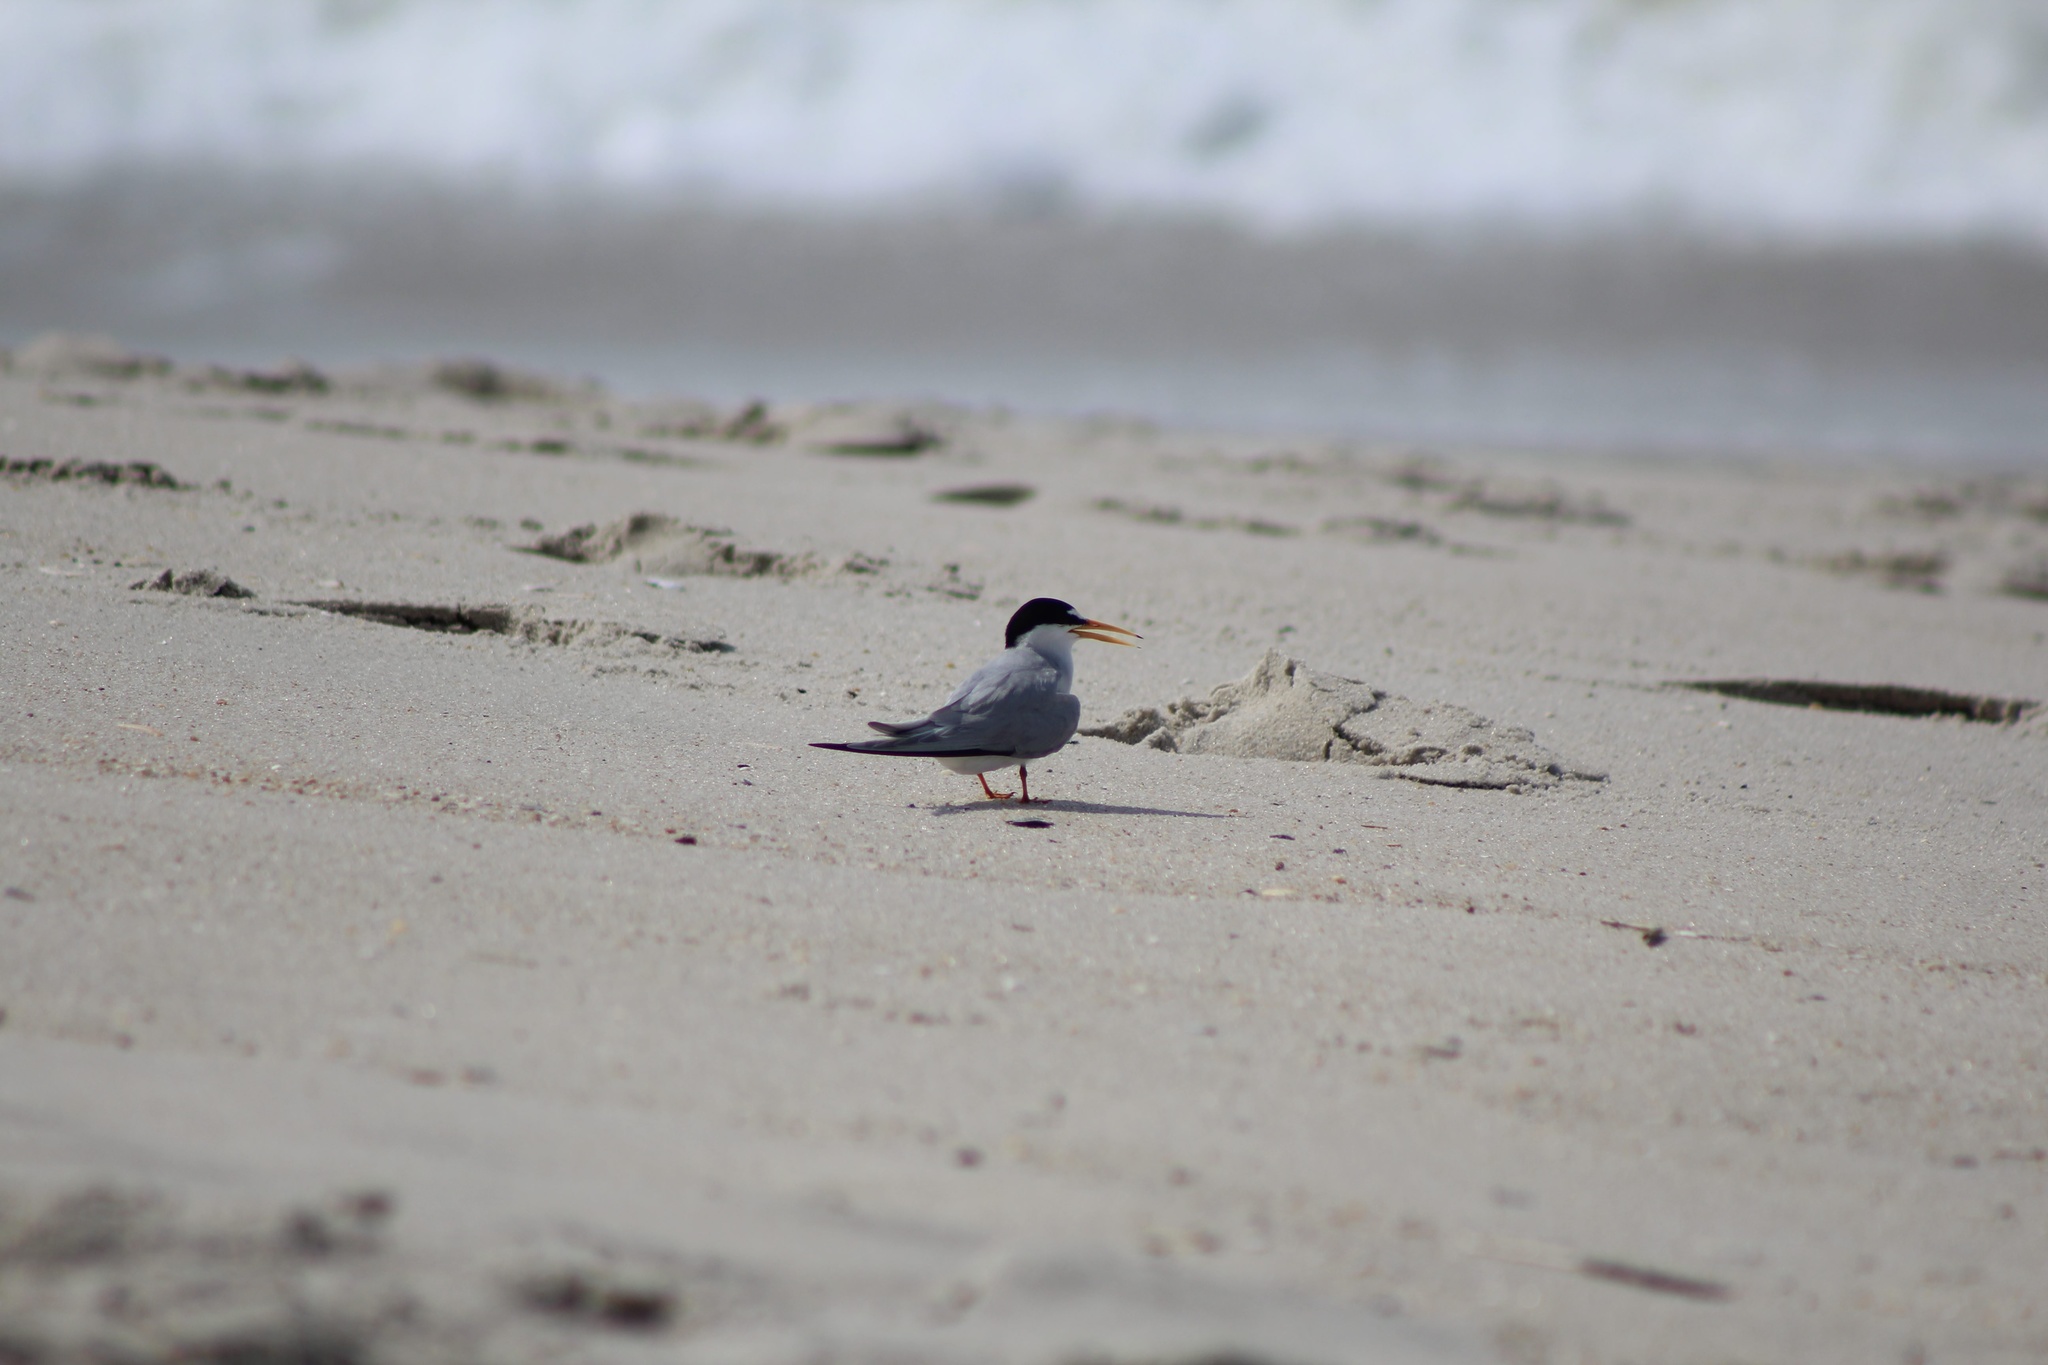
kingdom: Animalia
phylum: Chordata
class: Aves
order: Charadriiformes
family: Laridae
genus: Sternula
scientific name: Sternula antillarum
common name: Least tern
